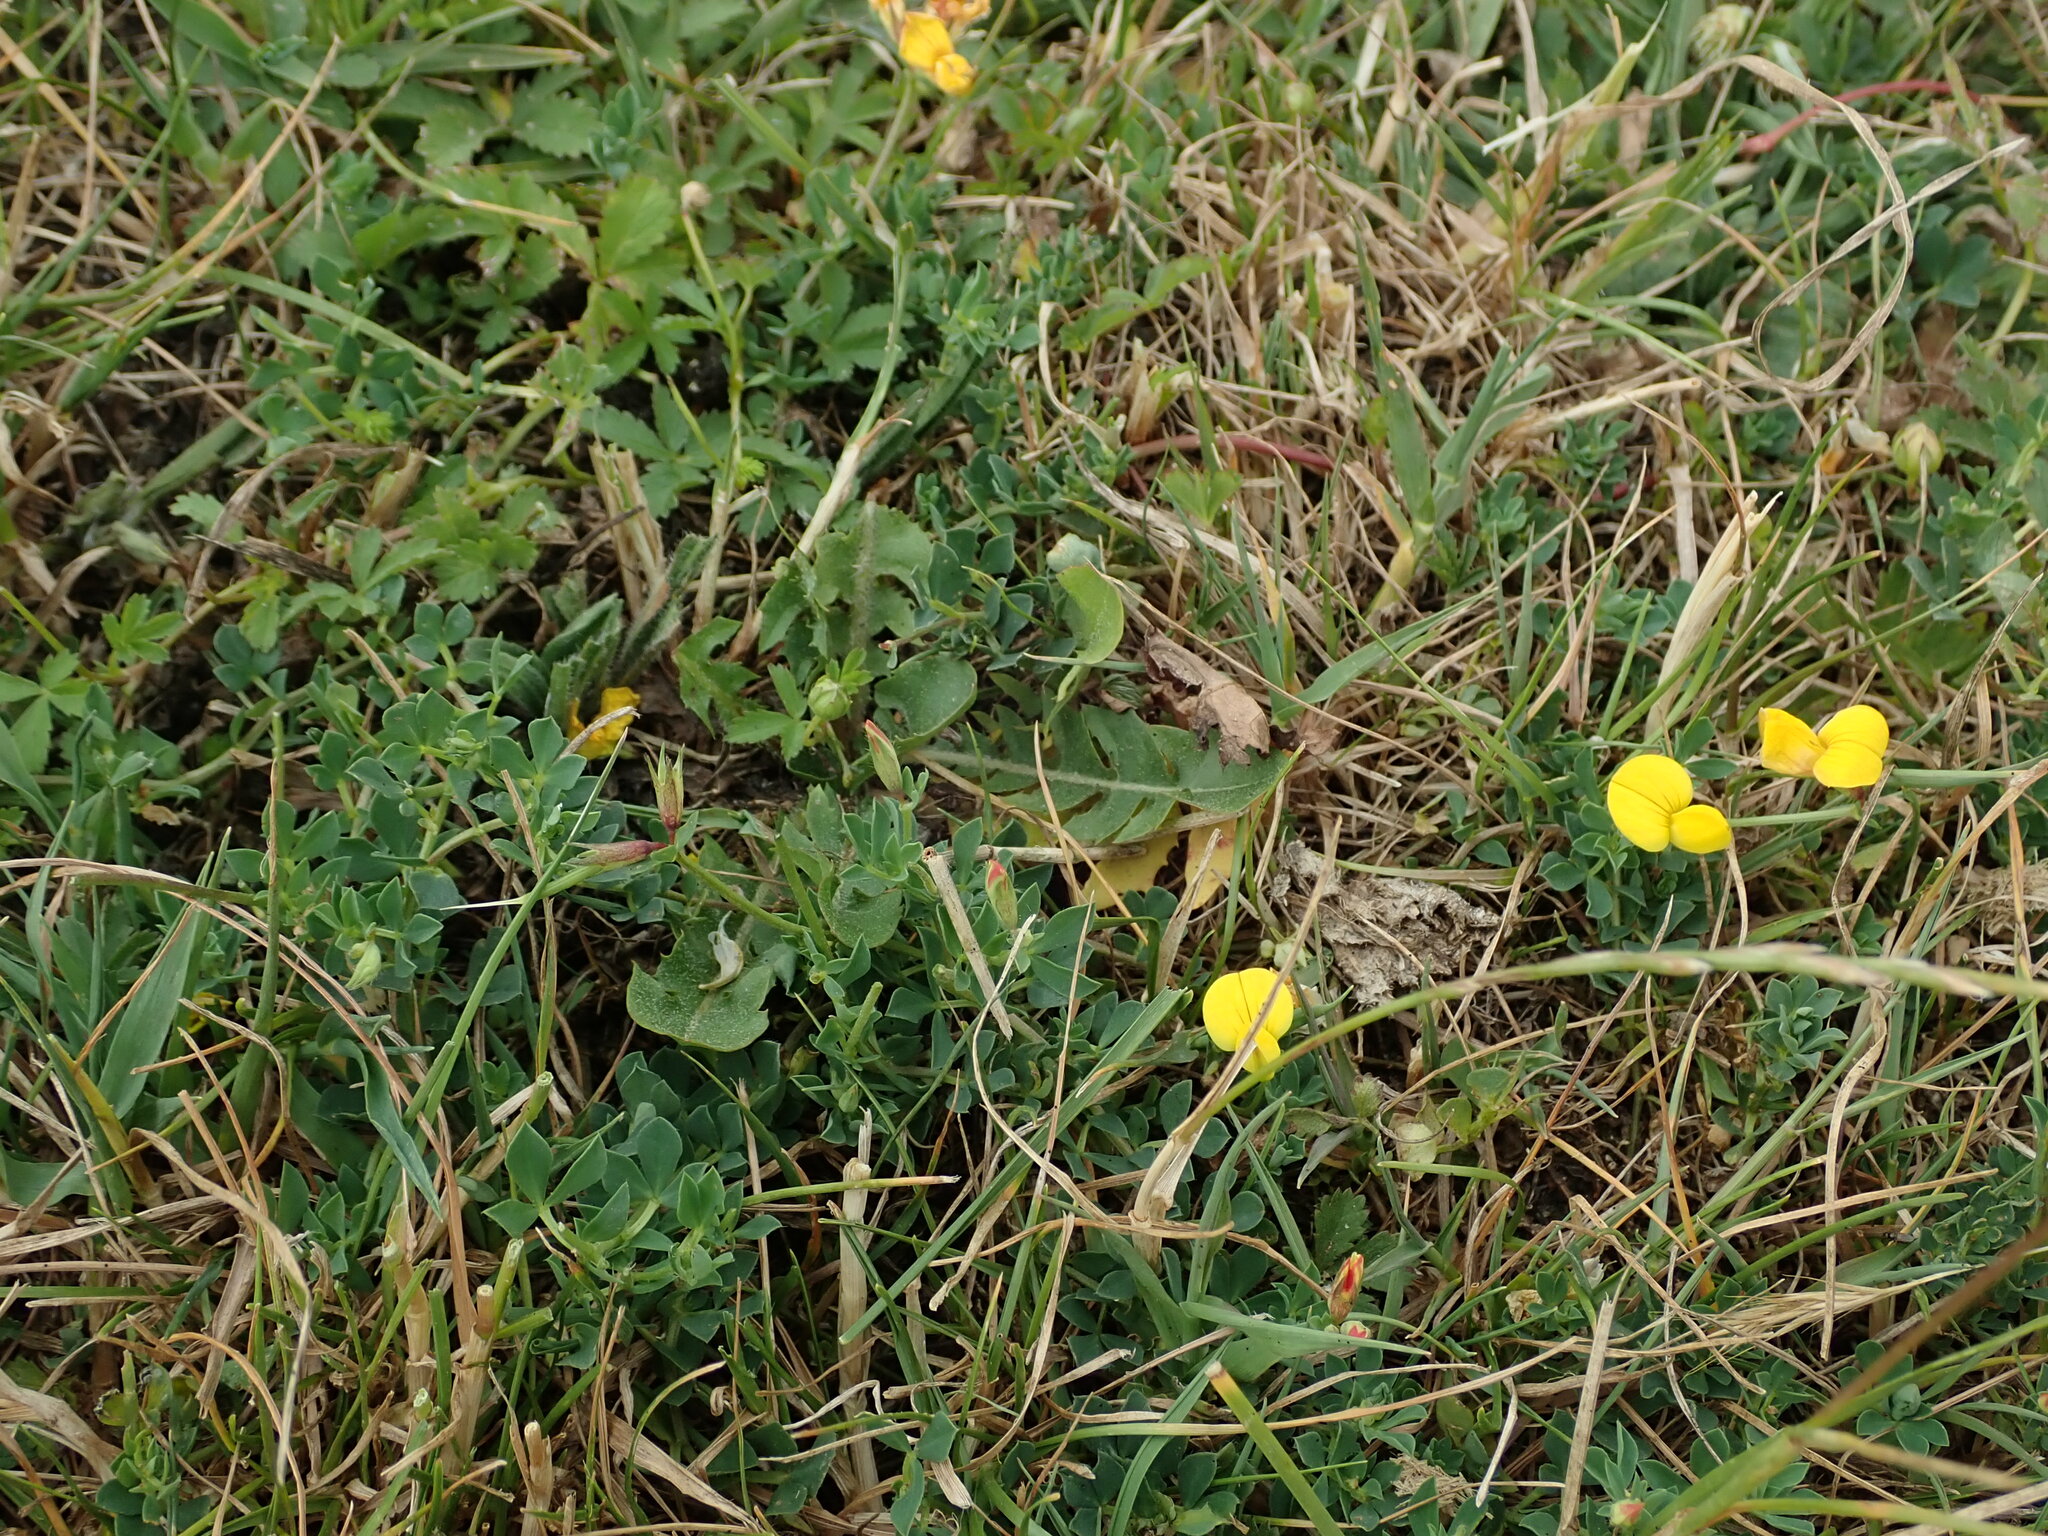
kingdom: Plantae
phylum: Tracheophyta
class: Magnoliopsida
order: Fabales
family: Fabaceae
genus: Lotus
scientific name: Lotus corniculatus
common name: Common bird's-foot-trefoil
